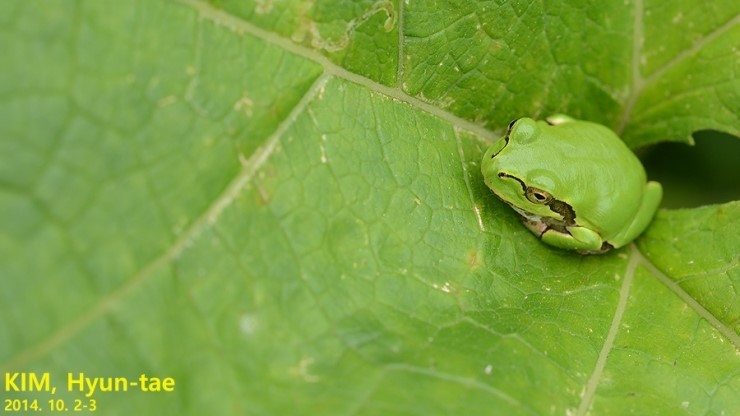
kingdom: Animalia
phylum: Chordata
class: Amphibia
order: Anura
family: Hylidae
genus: Dryophytes
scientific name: Dryophytes japonicus
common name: Japanese treefrog
